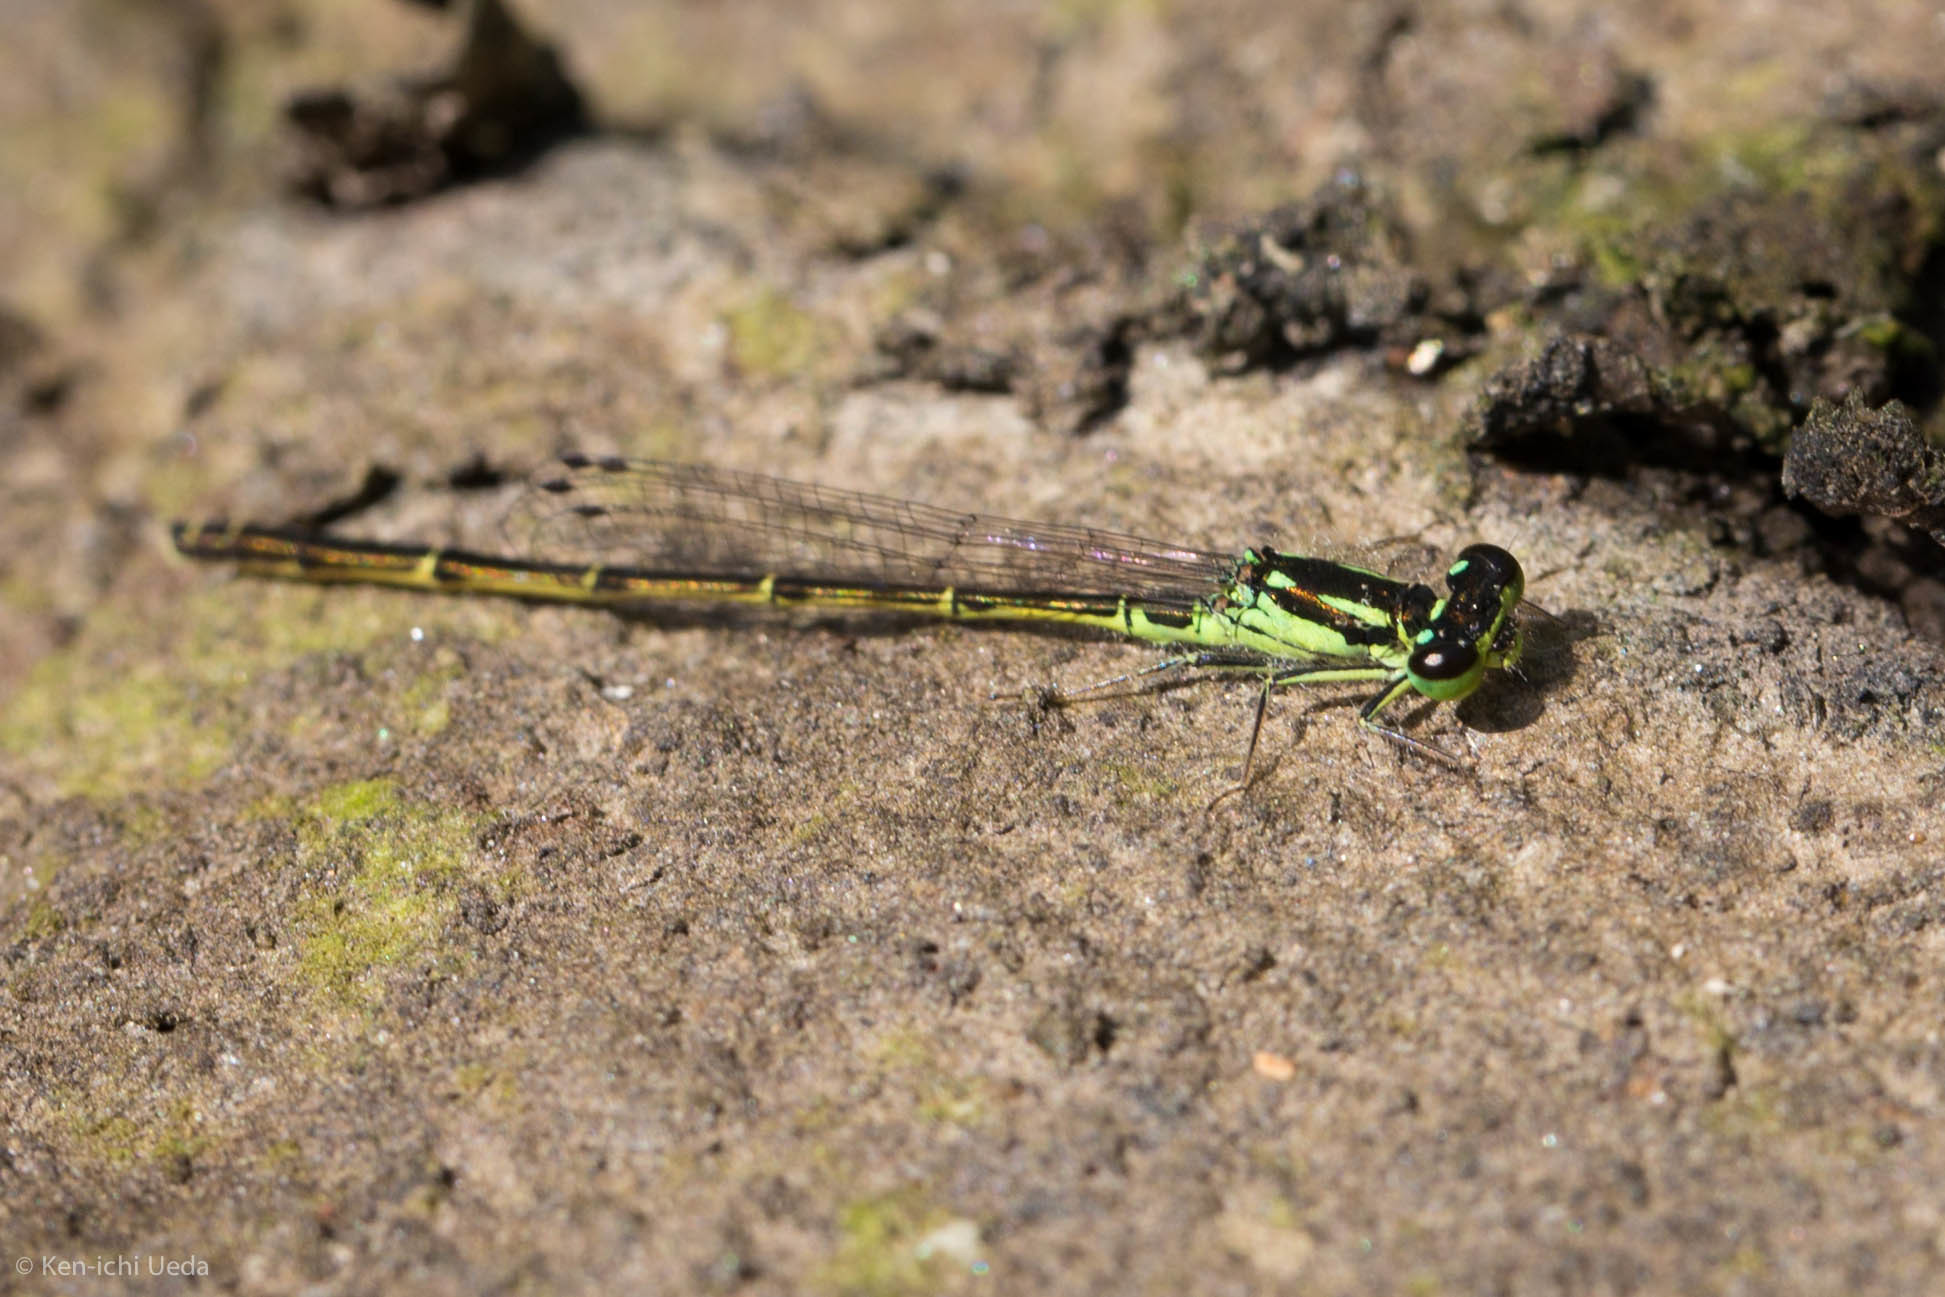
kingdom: Animalia
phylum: Arthropoda
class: Insecta
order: Odonata
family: Coenagrionidae
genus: Ischnura
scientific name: Ischnura posita
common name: Fragile forktail
